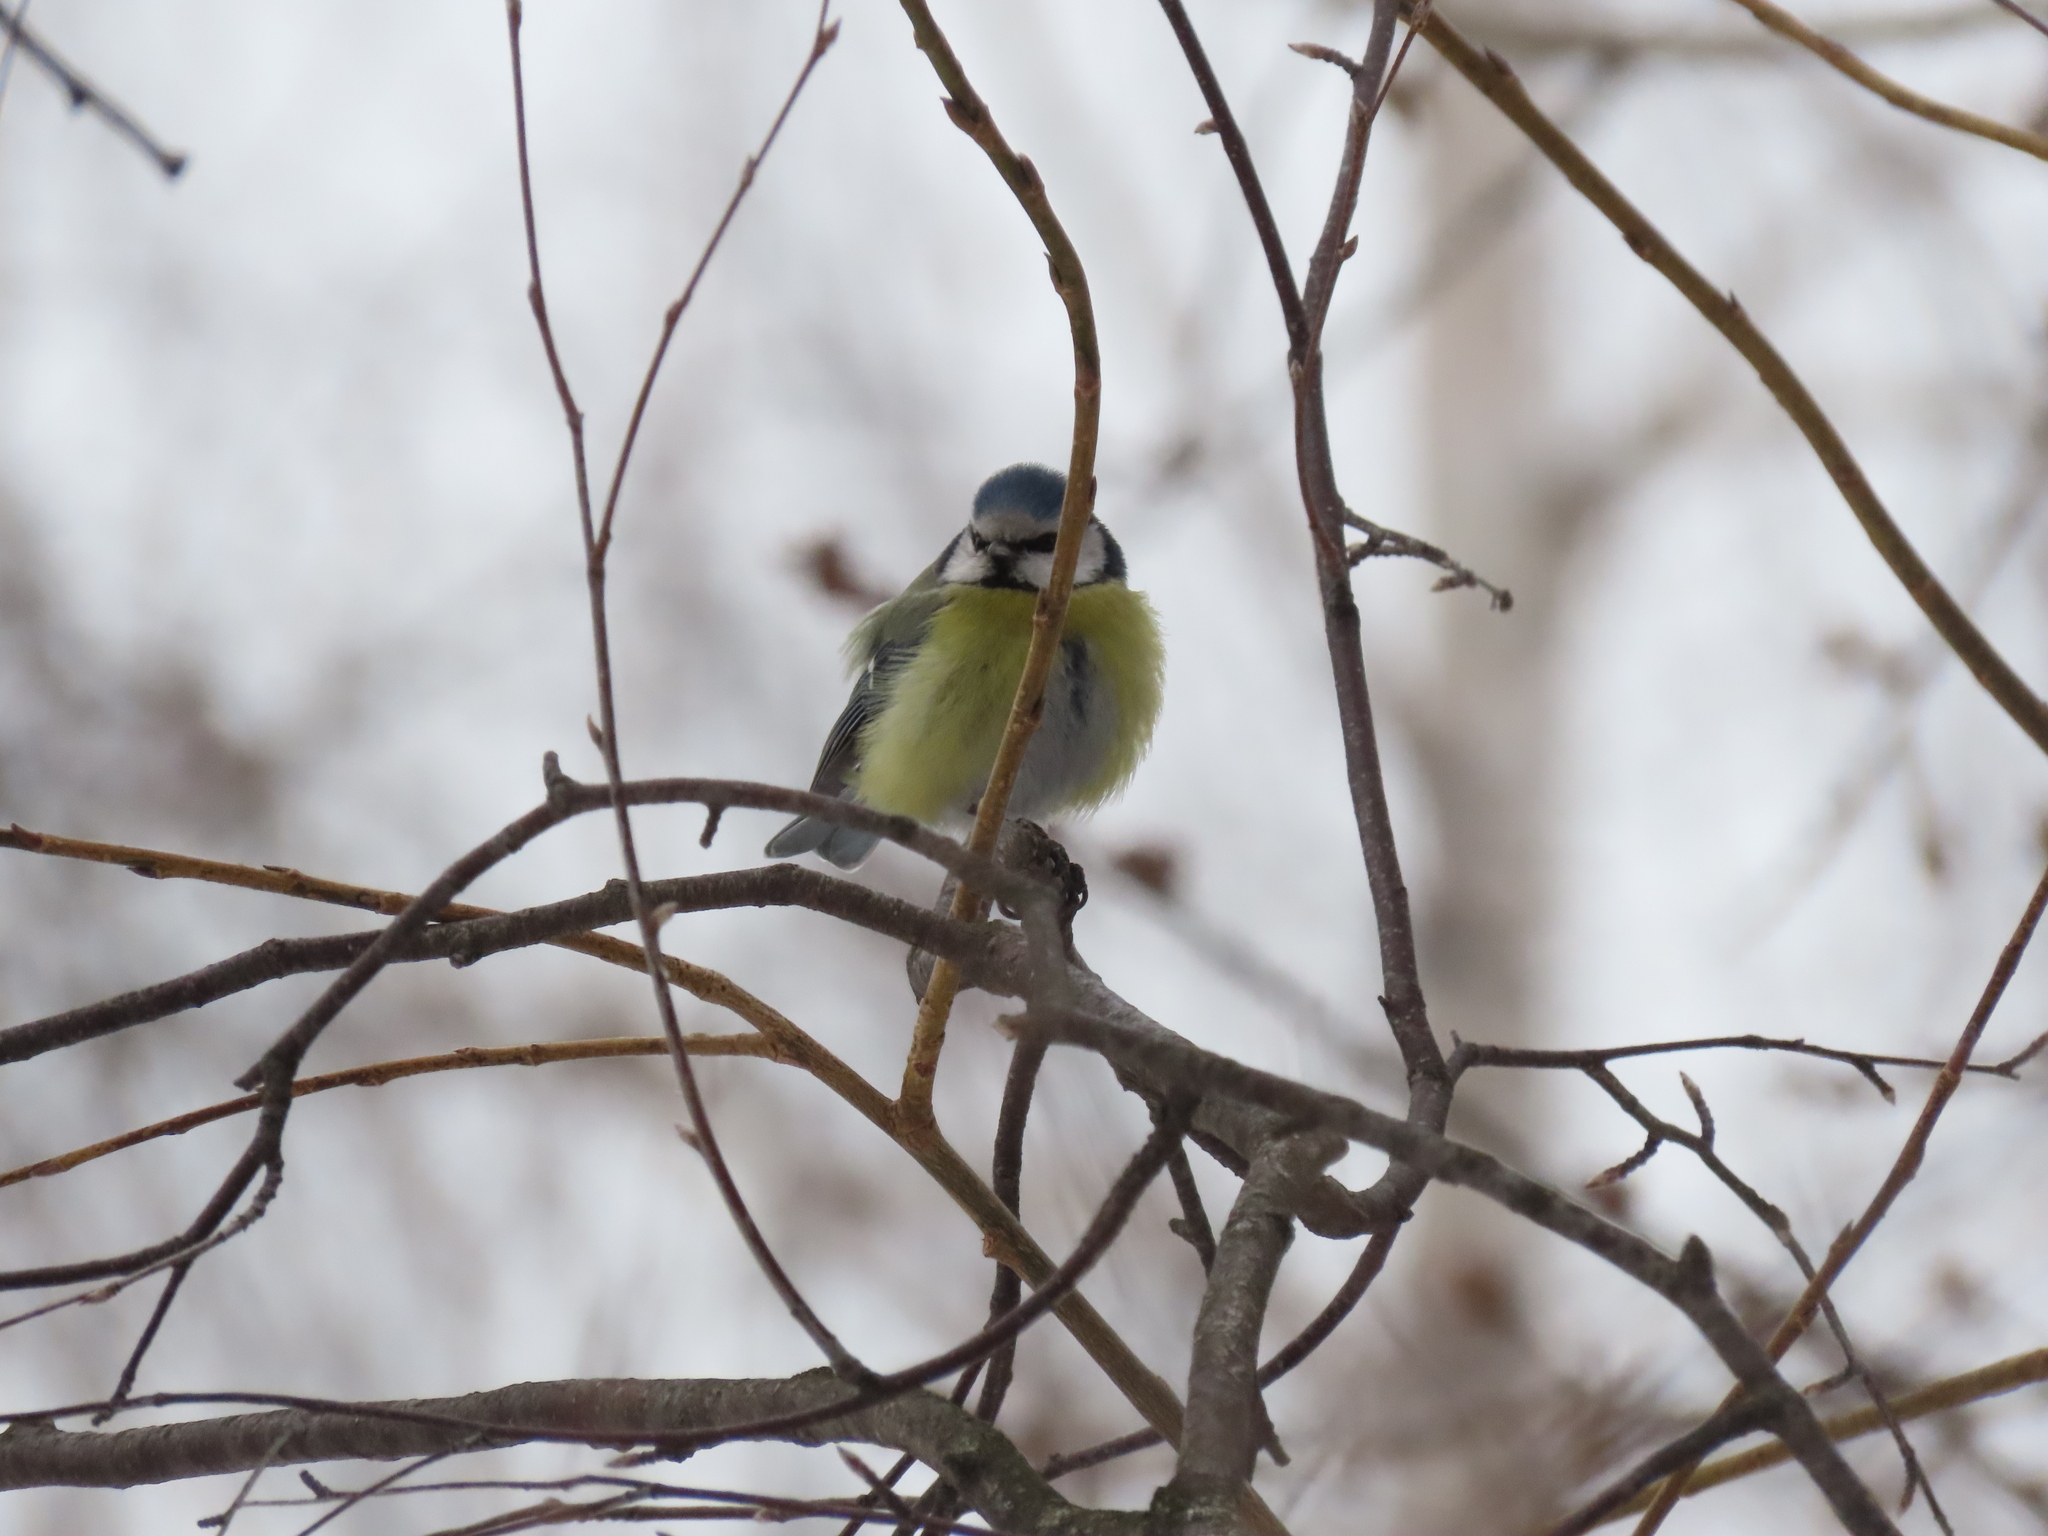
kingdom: Animalia
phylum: Chordata
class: Aves
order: Passeriformes
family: Paridae
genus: Cyanistes
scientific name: Cyanistes caeruleus
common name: Eurasian blue tit
